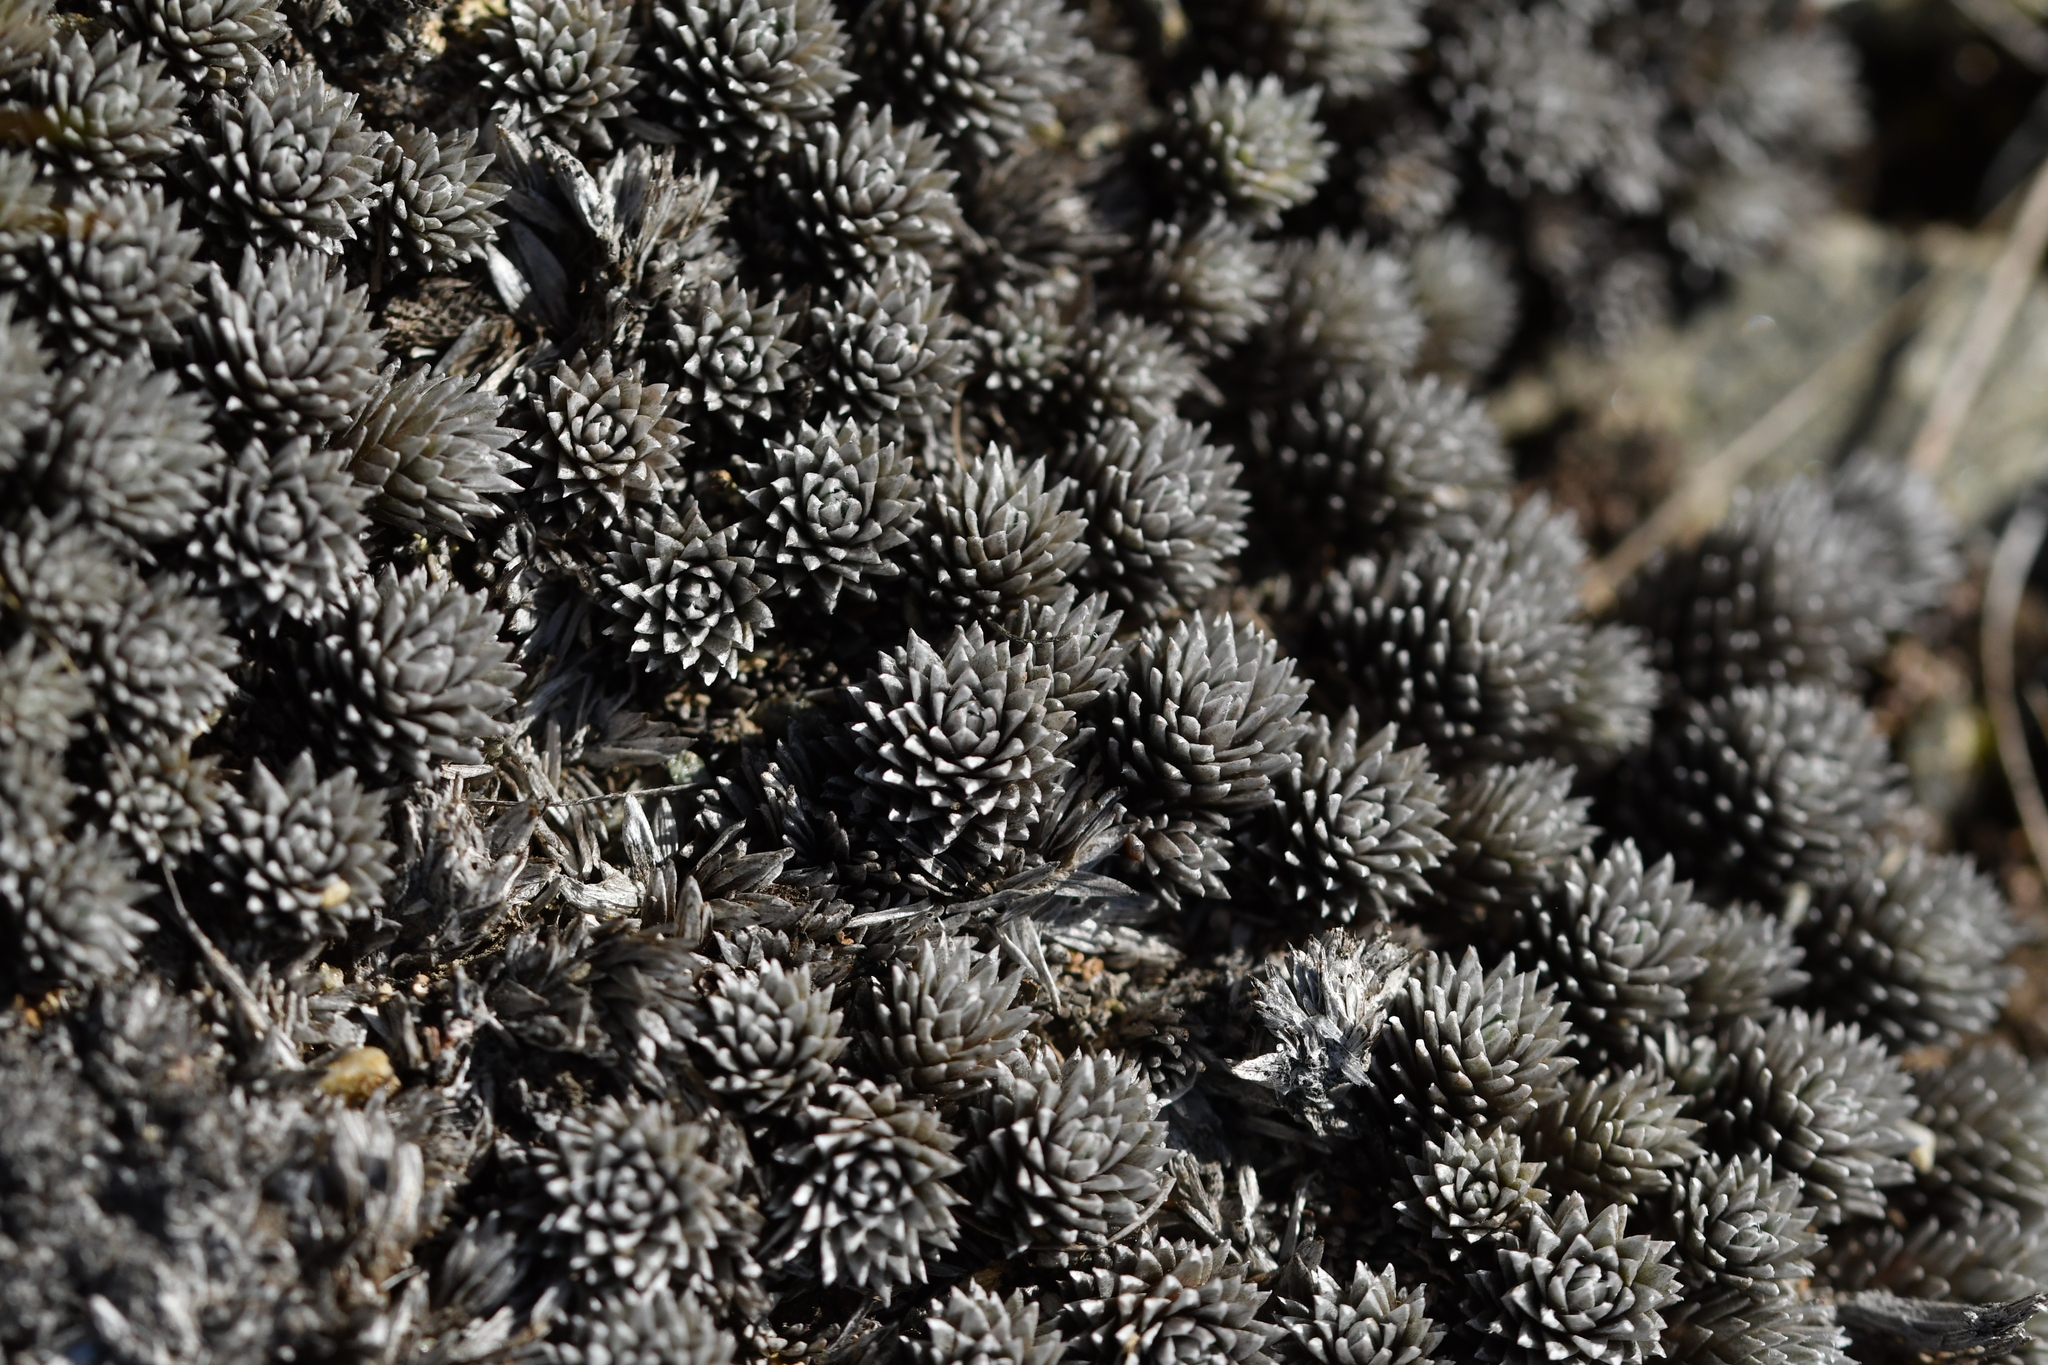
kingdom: Plantae
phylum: Tracheophyta
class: Magnoliopsida
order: Asterales
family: Asteraceae
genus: Raoulia
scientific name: Raoulia grandiflora
